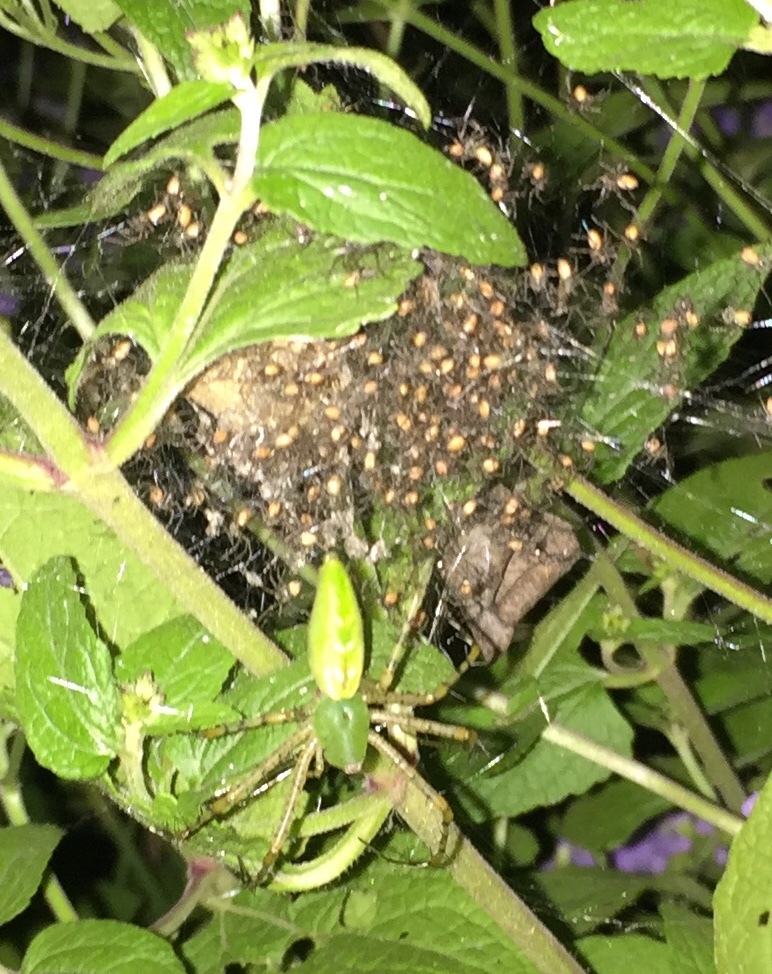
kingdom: Animalia
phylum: Arthropoda
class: Arachnida
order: Araneae
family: Oxyopidae
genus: Peucetia
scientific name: Peucetia viridans
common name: Lynx spiders
